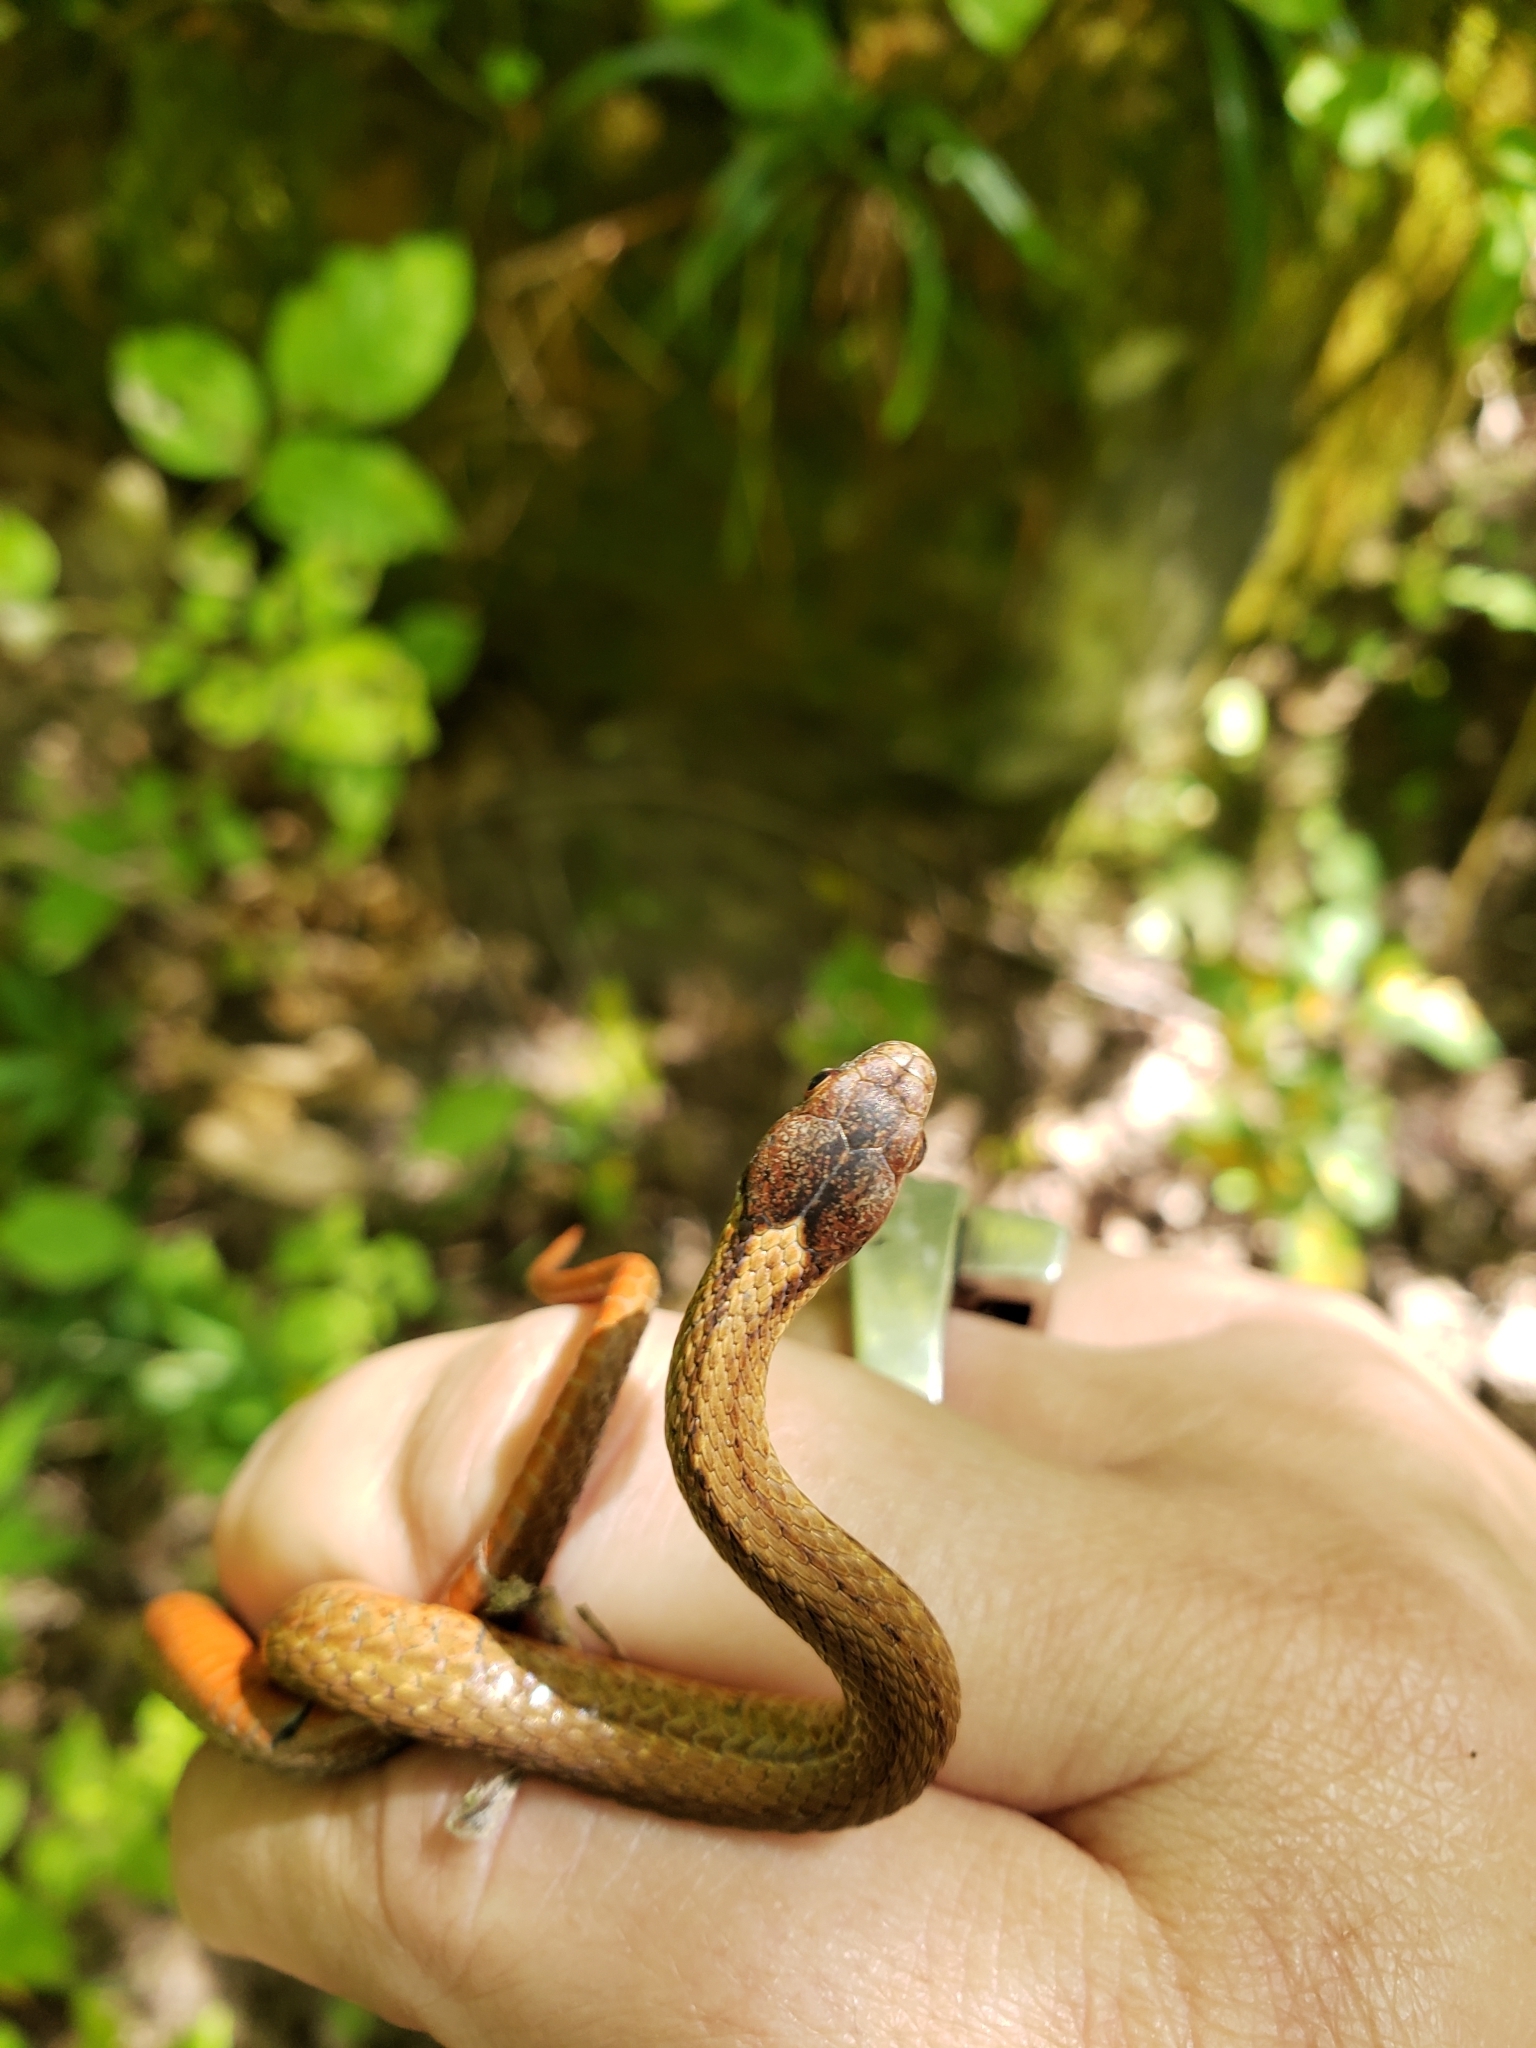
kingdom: Animalia
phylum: Chordata
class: Squamata
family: Colubridae
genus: Storeria
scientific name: Storeria occipitomaculata
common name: Redbelly snake
